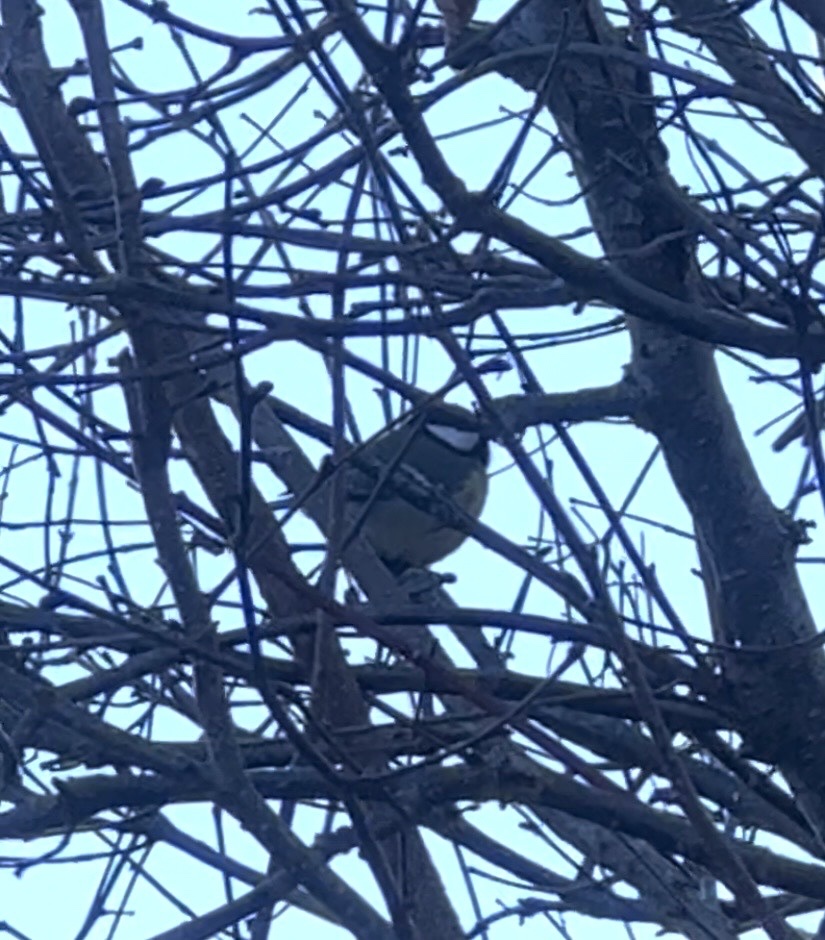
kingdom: Animalia
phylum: Chordata
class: Aves
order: Passeriformes
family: Paridae
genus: Parus
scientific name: Parus major
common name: Great tit
